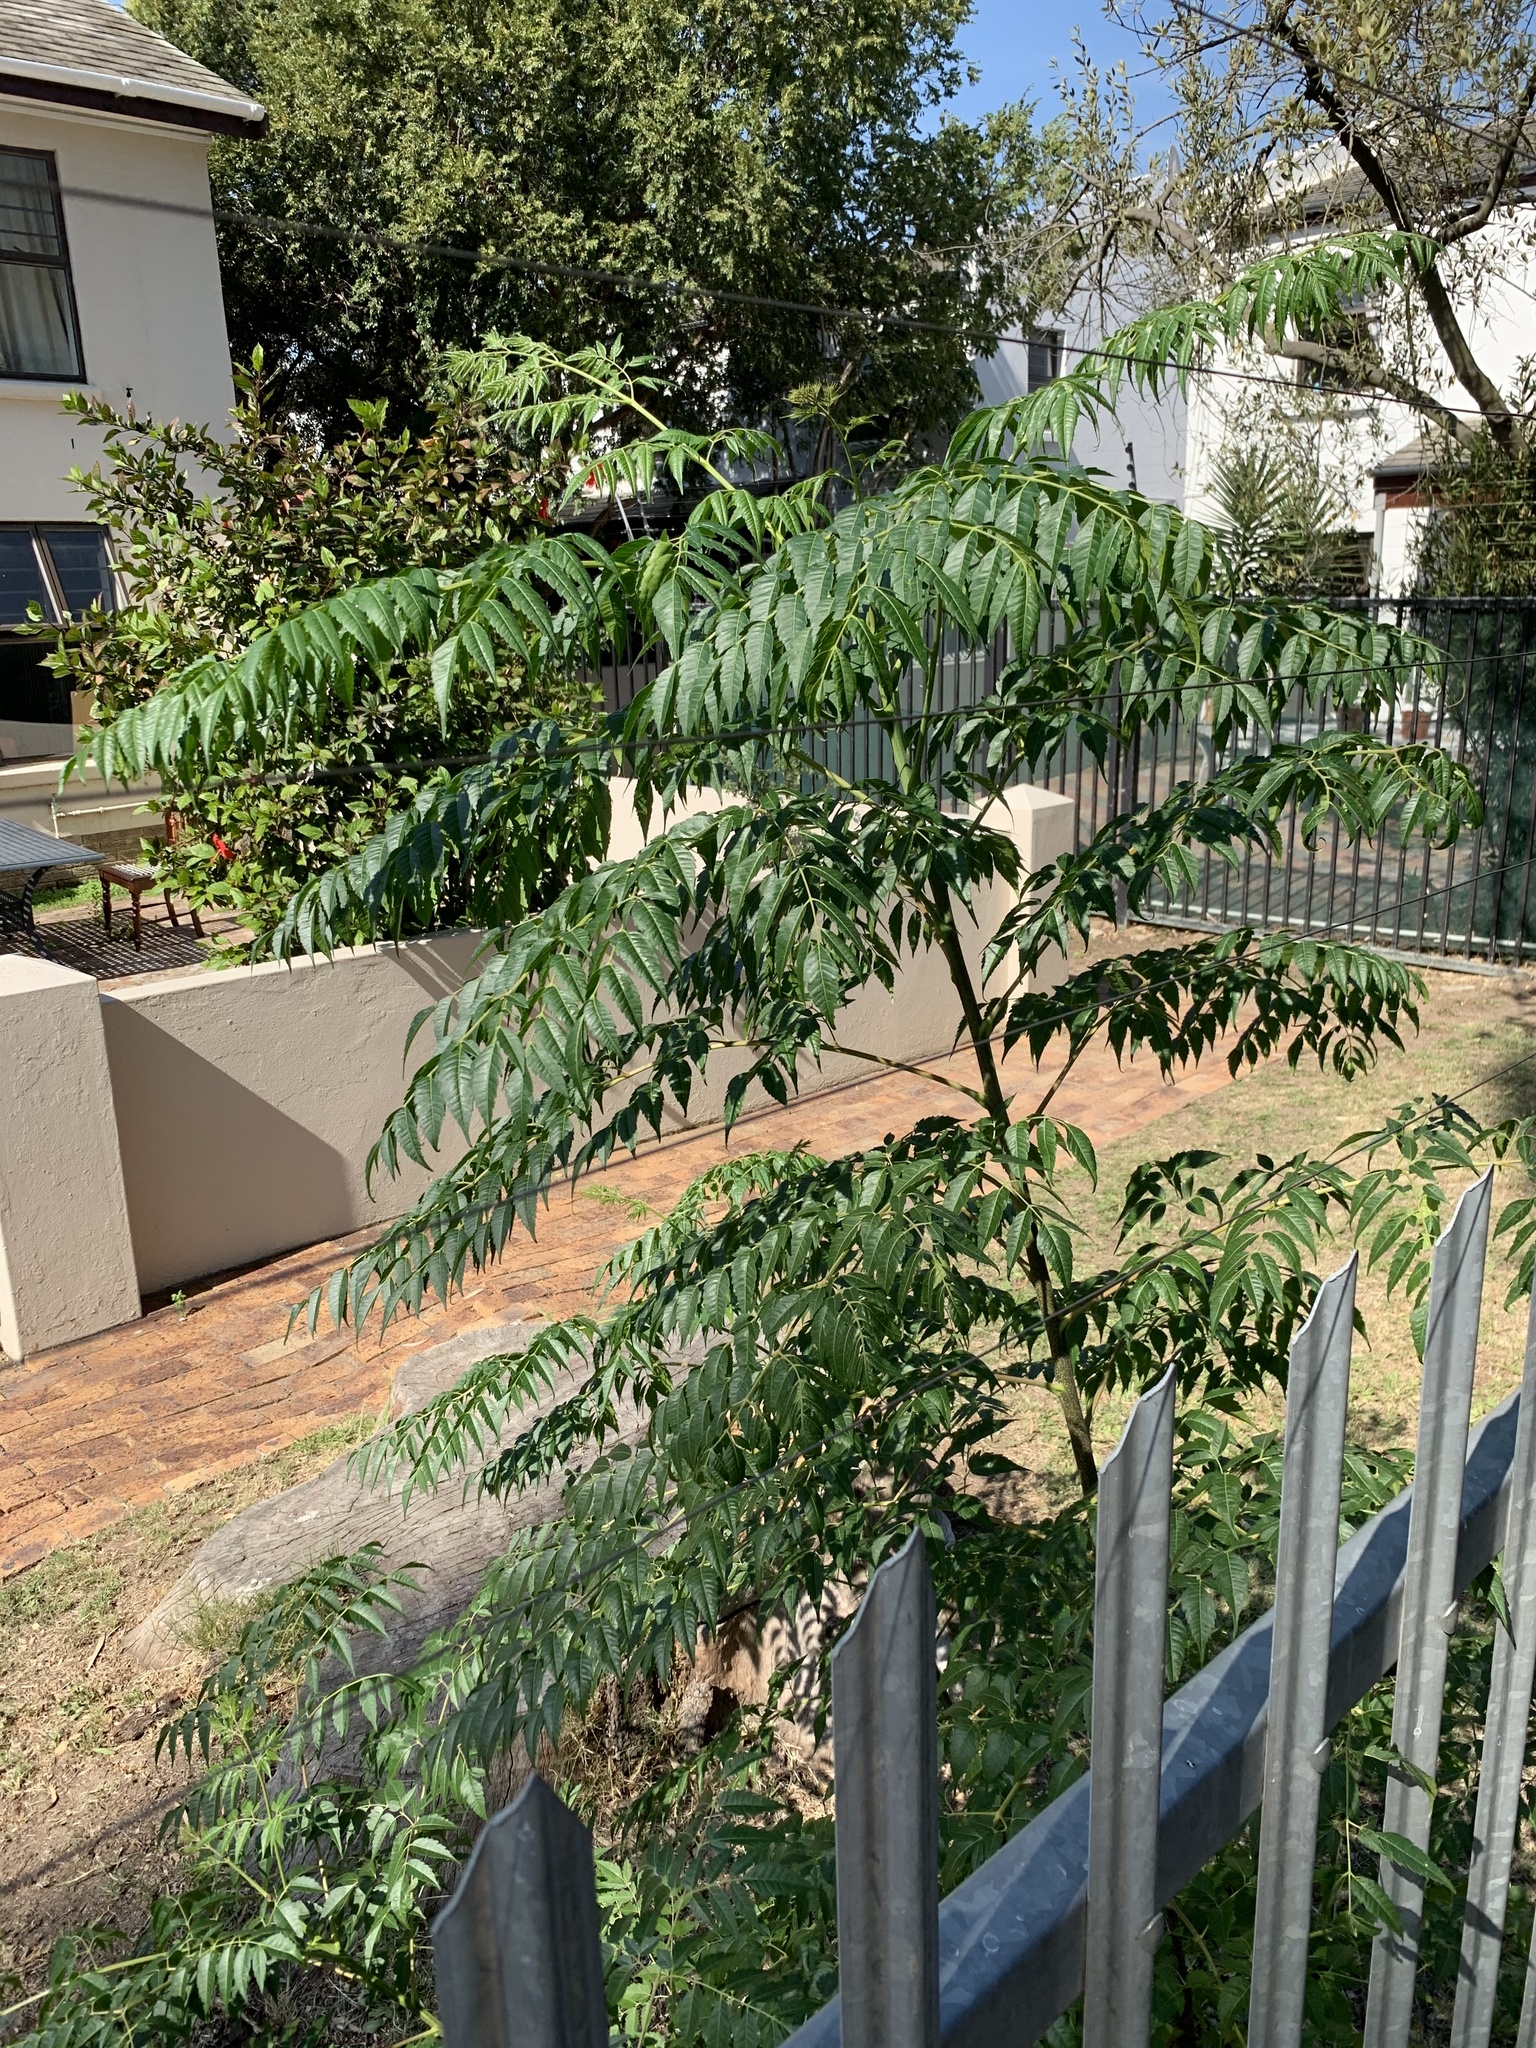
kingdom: Plantae
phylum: Tracheophyta
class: Magnoliopsida
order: Sapindales
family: Meliaceae
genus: Melia
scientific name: Melia azedarach
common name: Chinaberrytree
